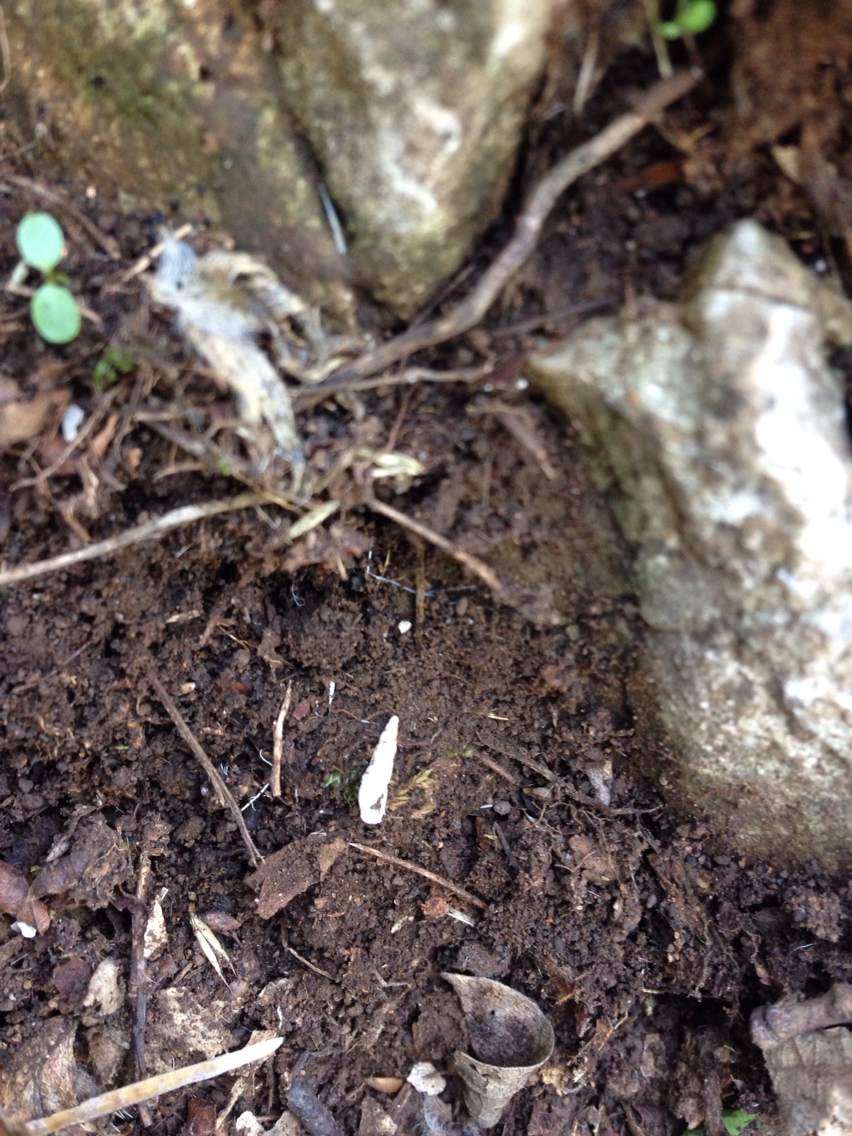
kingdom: Animalia
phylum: Mollusca
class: Gastropoda
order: Stylommatophora
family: Ferussaciidae
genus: Cecilioides
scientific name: Cecilioides acicula
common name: Blind awlsnail
